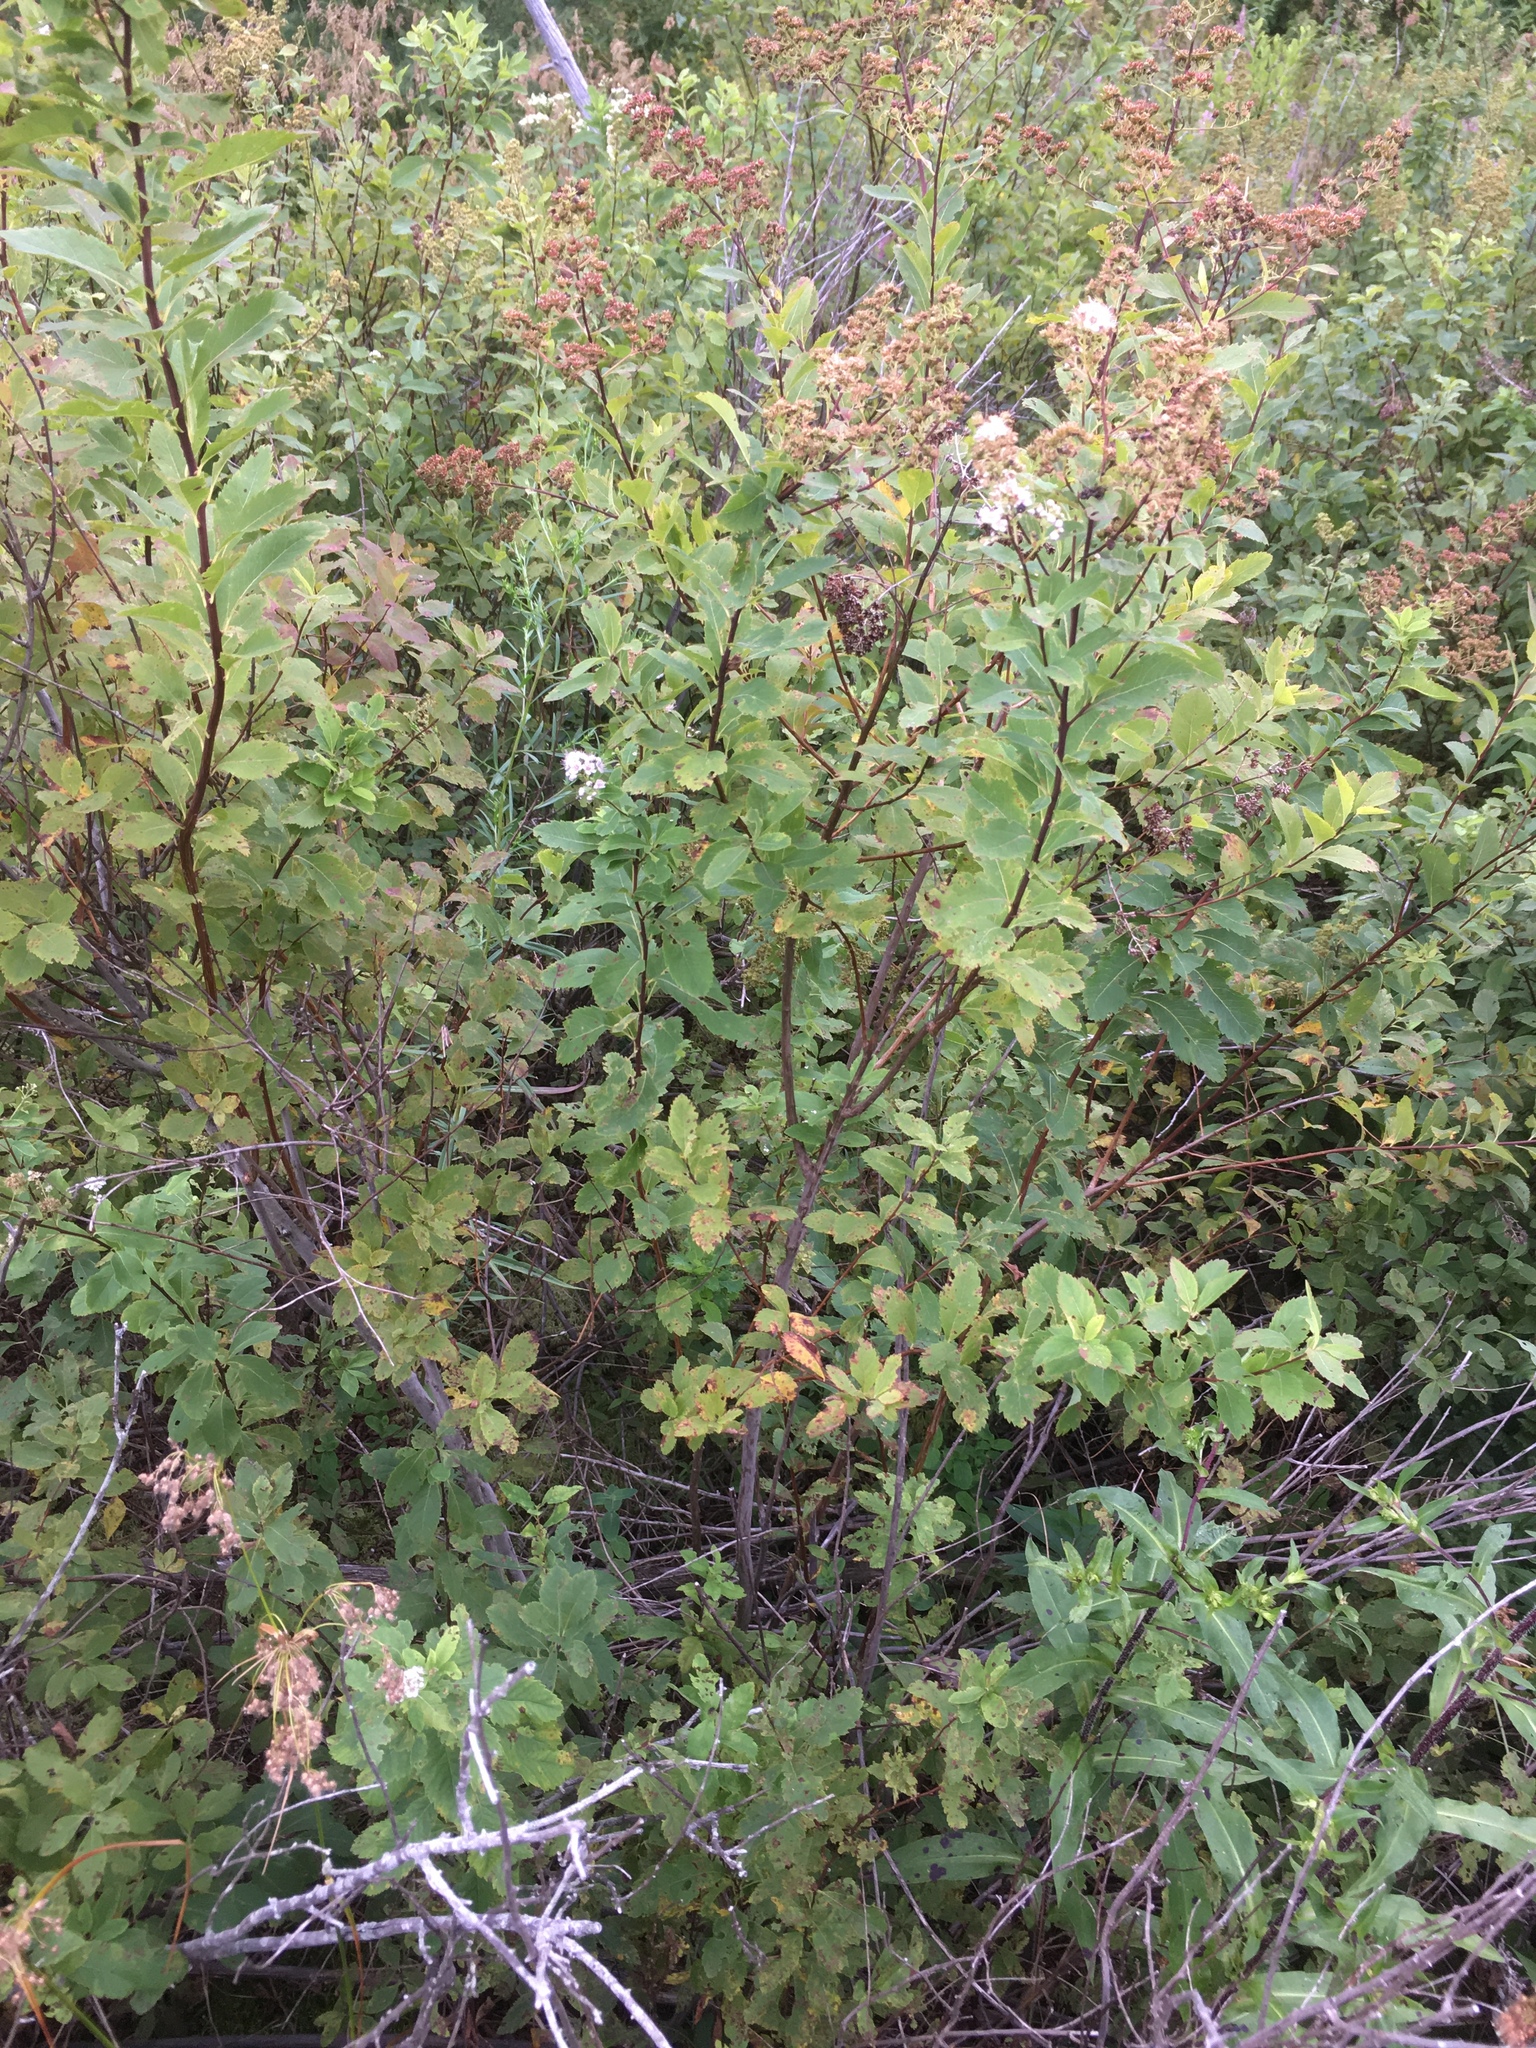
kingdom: Plantae
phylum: Tracheophyta
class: Magnoliopsida
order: Rosales
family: Rosaceae
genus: Spiraea
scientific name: Spiraea alba
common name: Pale bridewort
